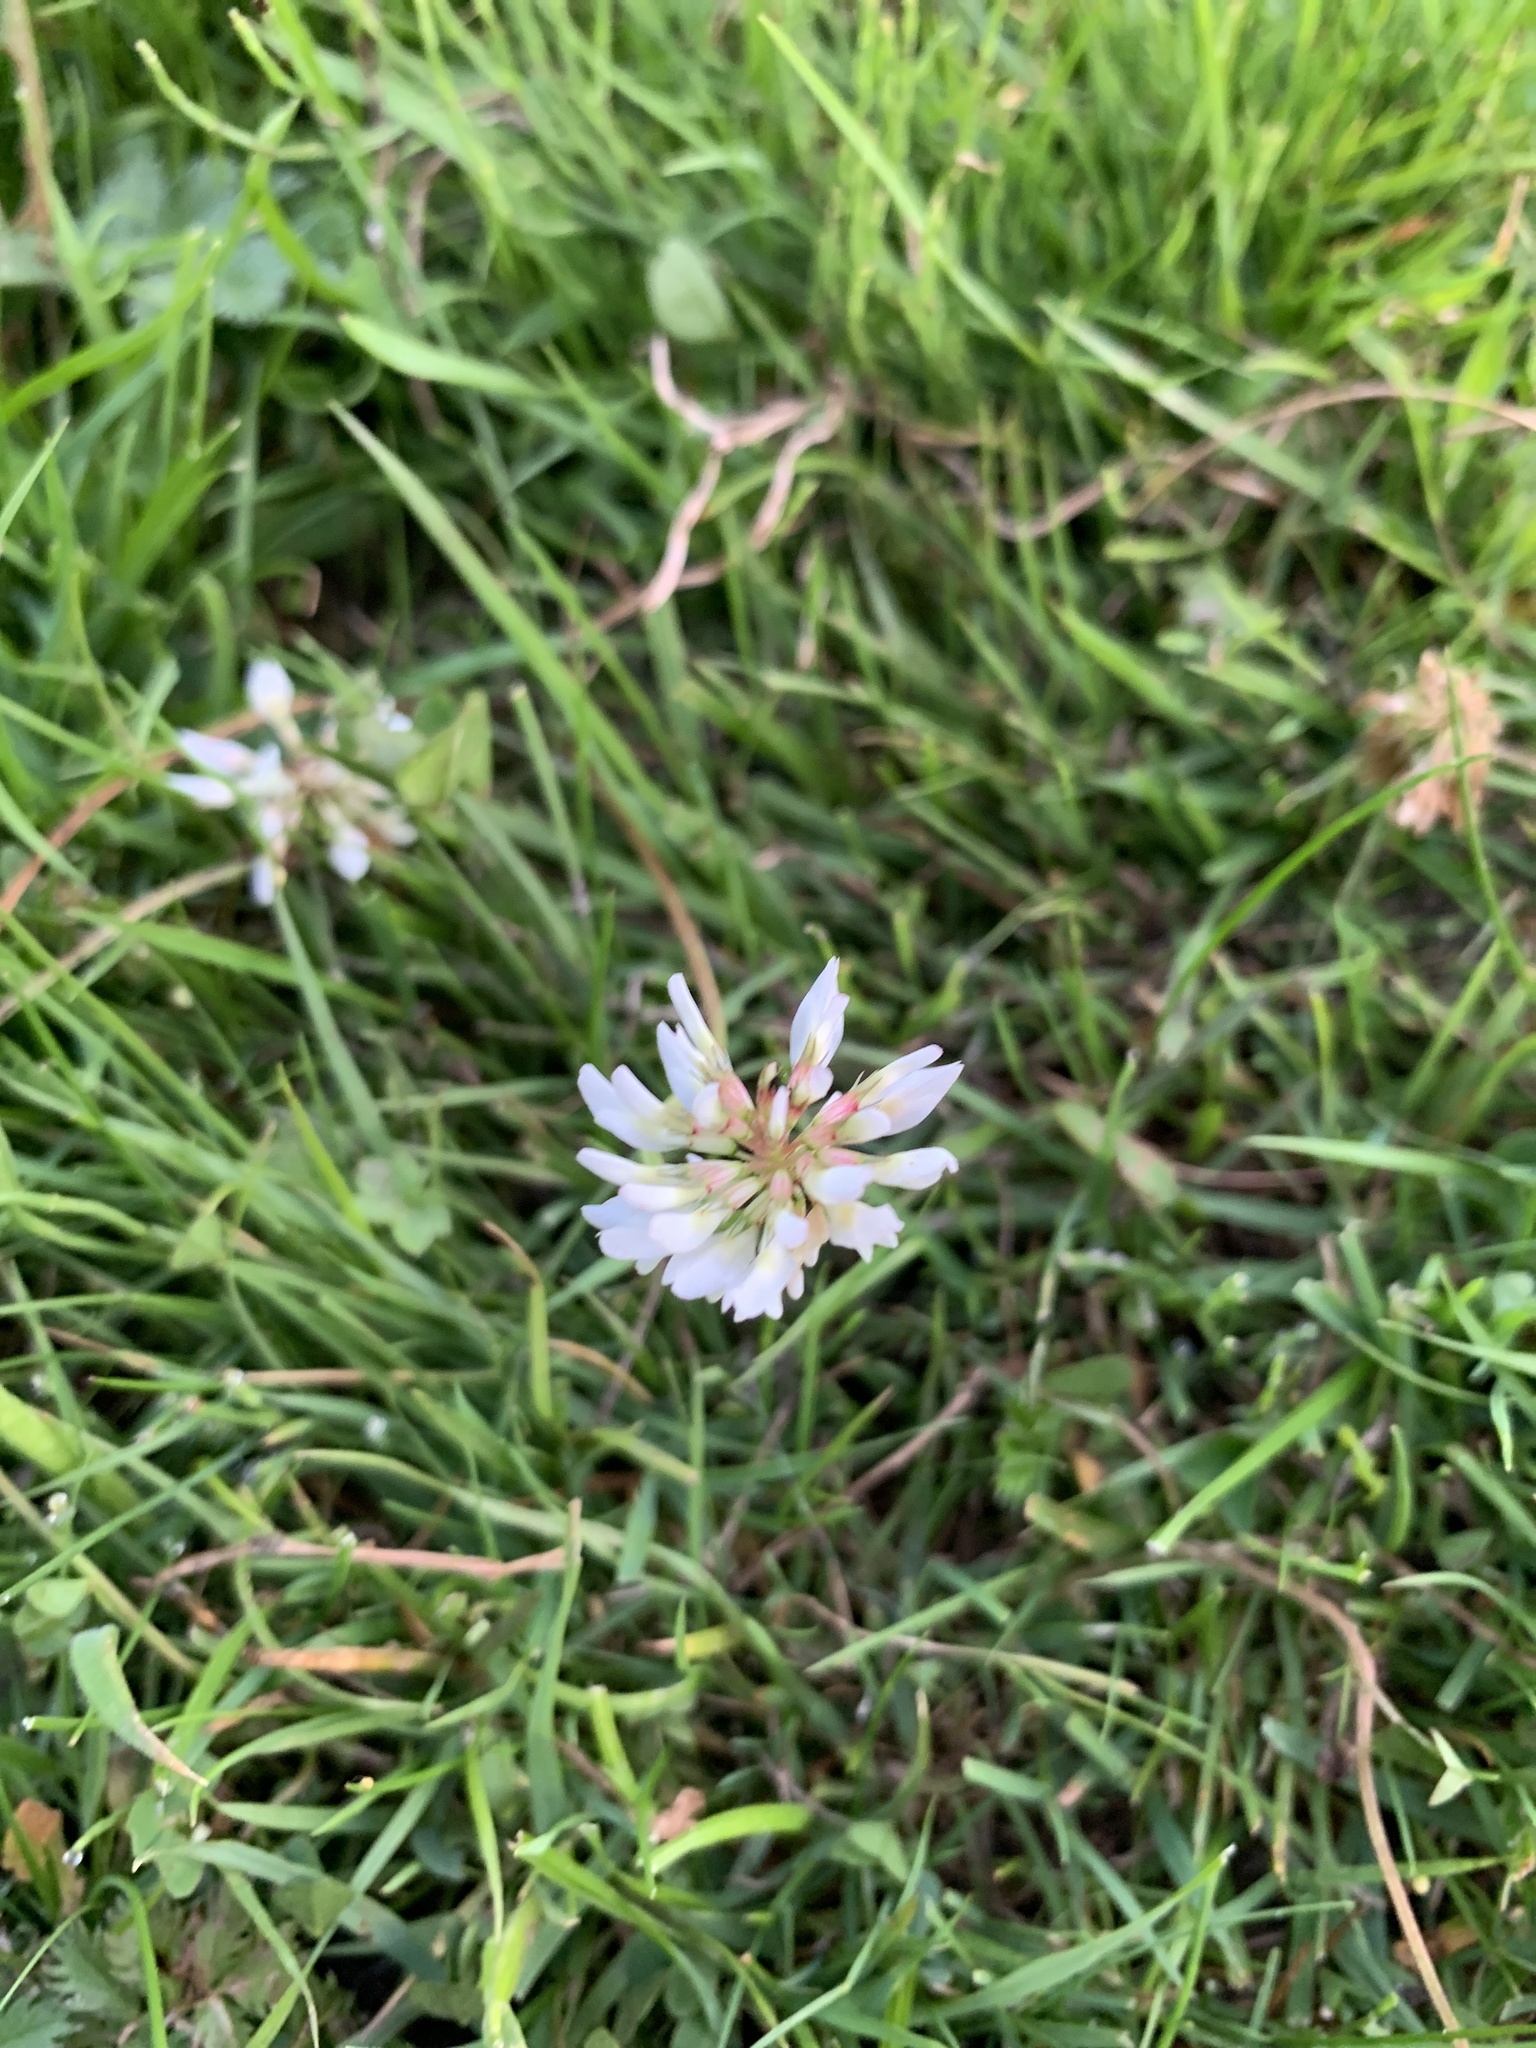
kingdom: Plantae
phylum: Tracheophyta
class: Magnoliopsida
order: Fabales
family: Fabaceae
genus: Trifolium
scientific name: Trifolium repens
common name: White clover
